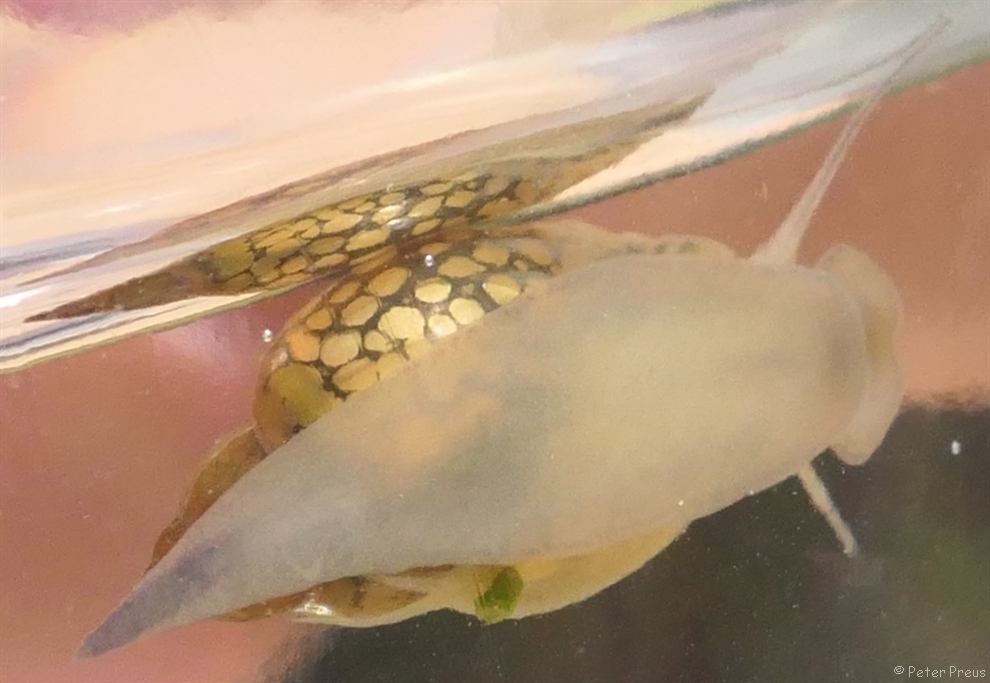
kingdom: Animalia
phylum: Mollusca
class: Gastropoda
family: Physidae
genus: Physella
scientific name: Physella acuta
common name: European physa
